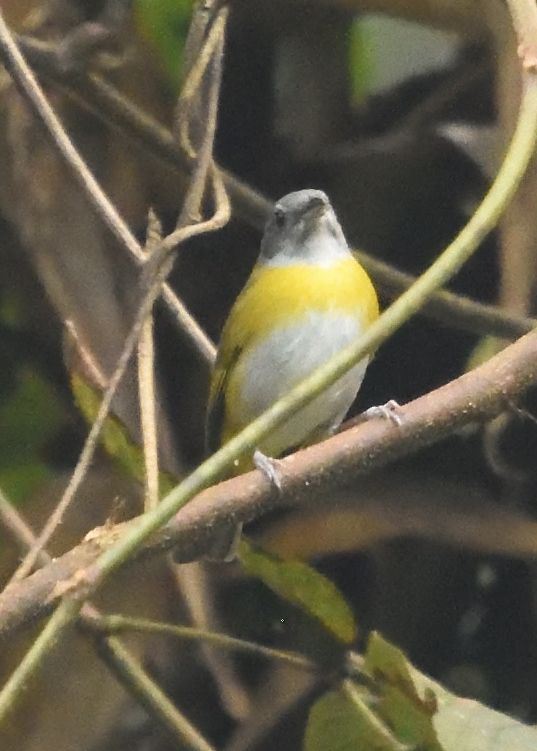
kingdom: Animalia
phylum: Chordata
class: Aves
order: Passeriformes
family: Passerellidae
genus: Chlorospingus
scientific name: Chlorospingus canigularis
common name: Ashy-throated bush-tanager
